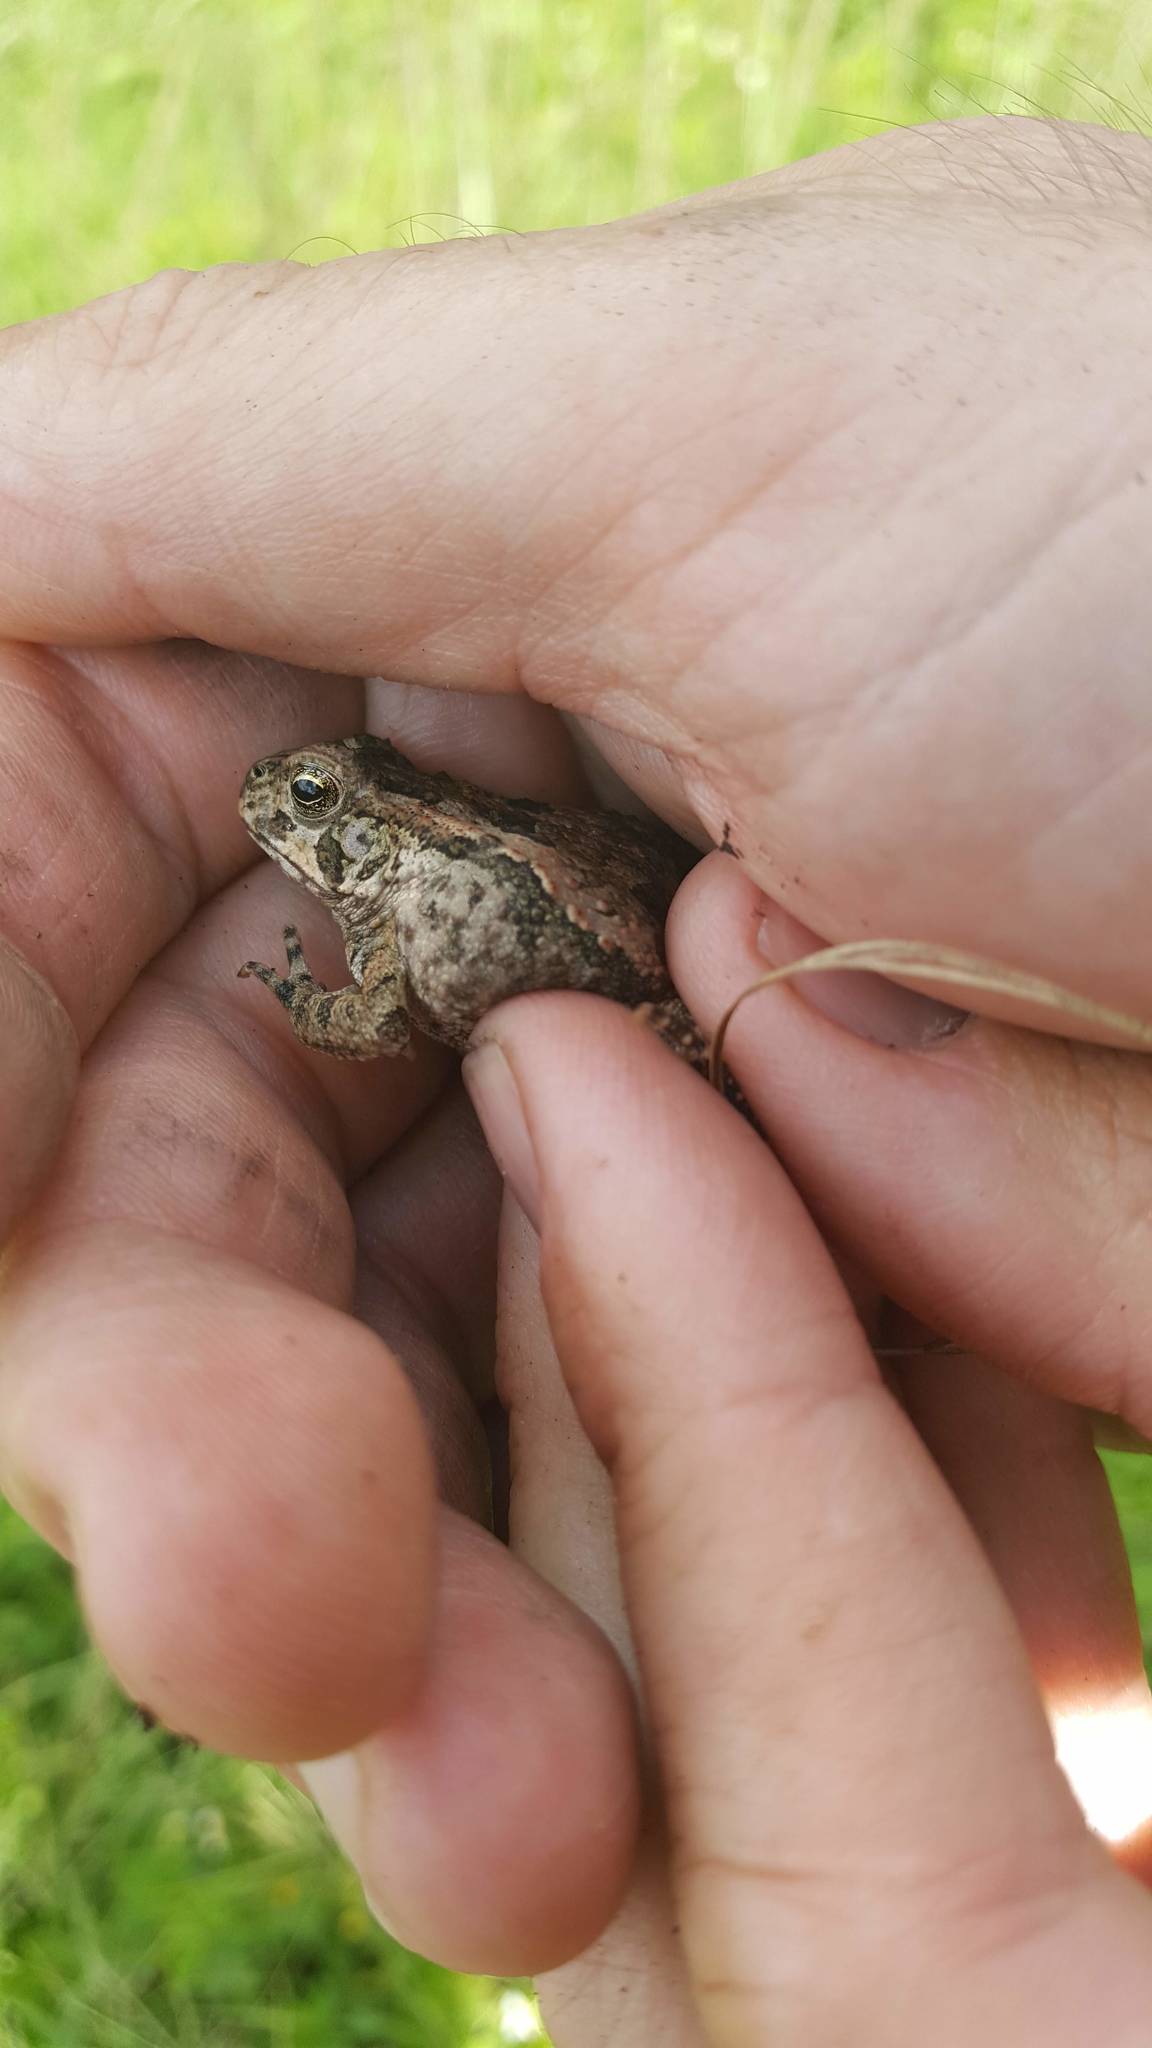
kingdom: Animalia
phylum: Chordata
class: Amphibia
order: Anura
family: Bufonidae
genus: Rhinella
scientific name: Rhinella marina
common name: Cane toad
